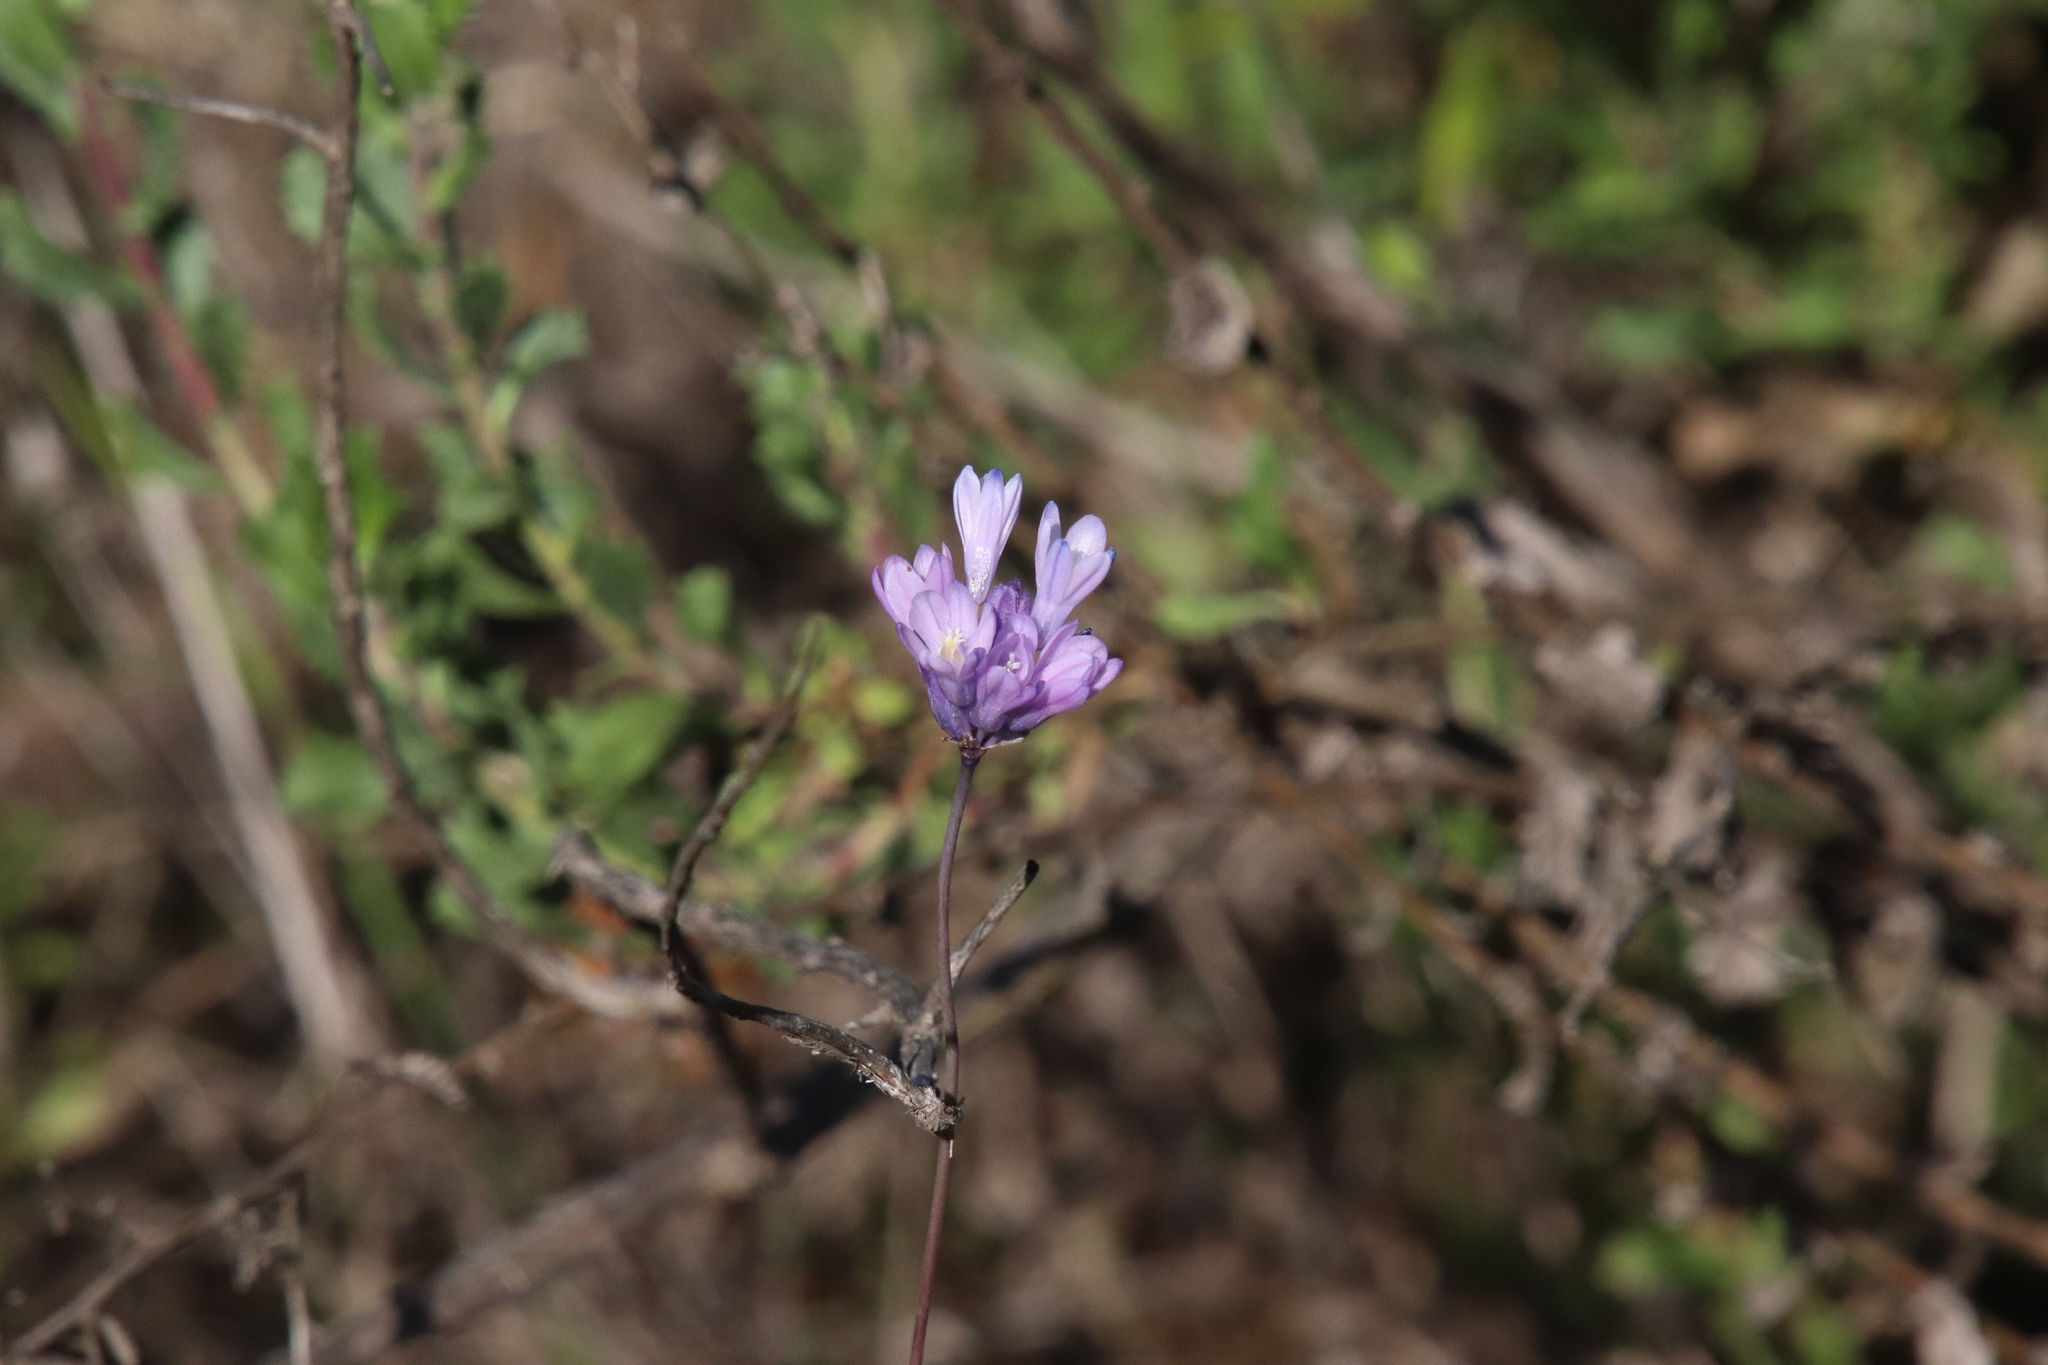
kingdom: Plantae
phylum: Tracheophyta
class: Liliopsida
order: Asparagales
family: Asparagaceae
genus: Dipterostemon
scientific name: Dipterostemon capitatus
